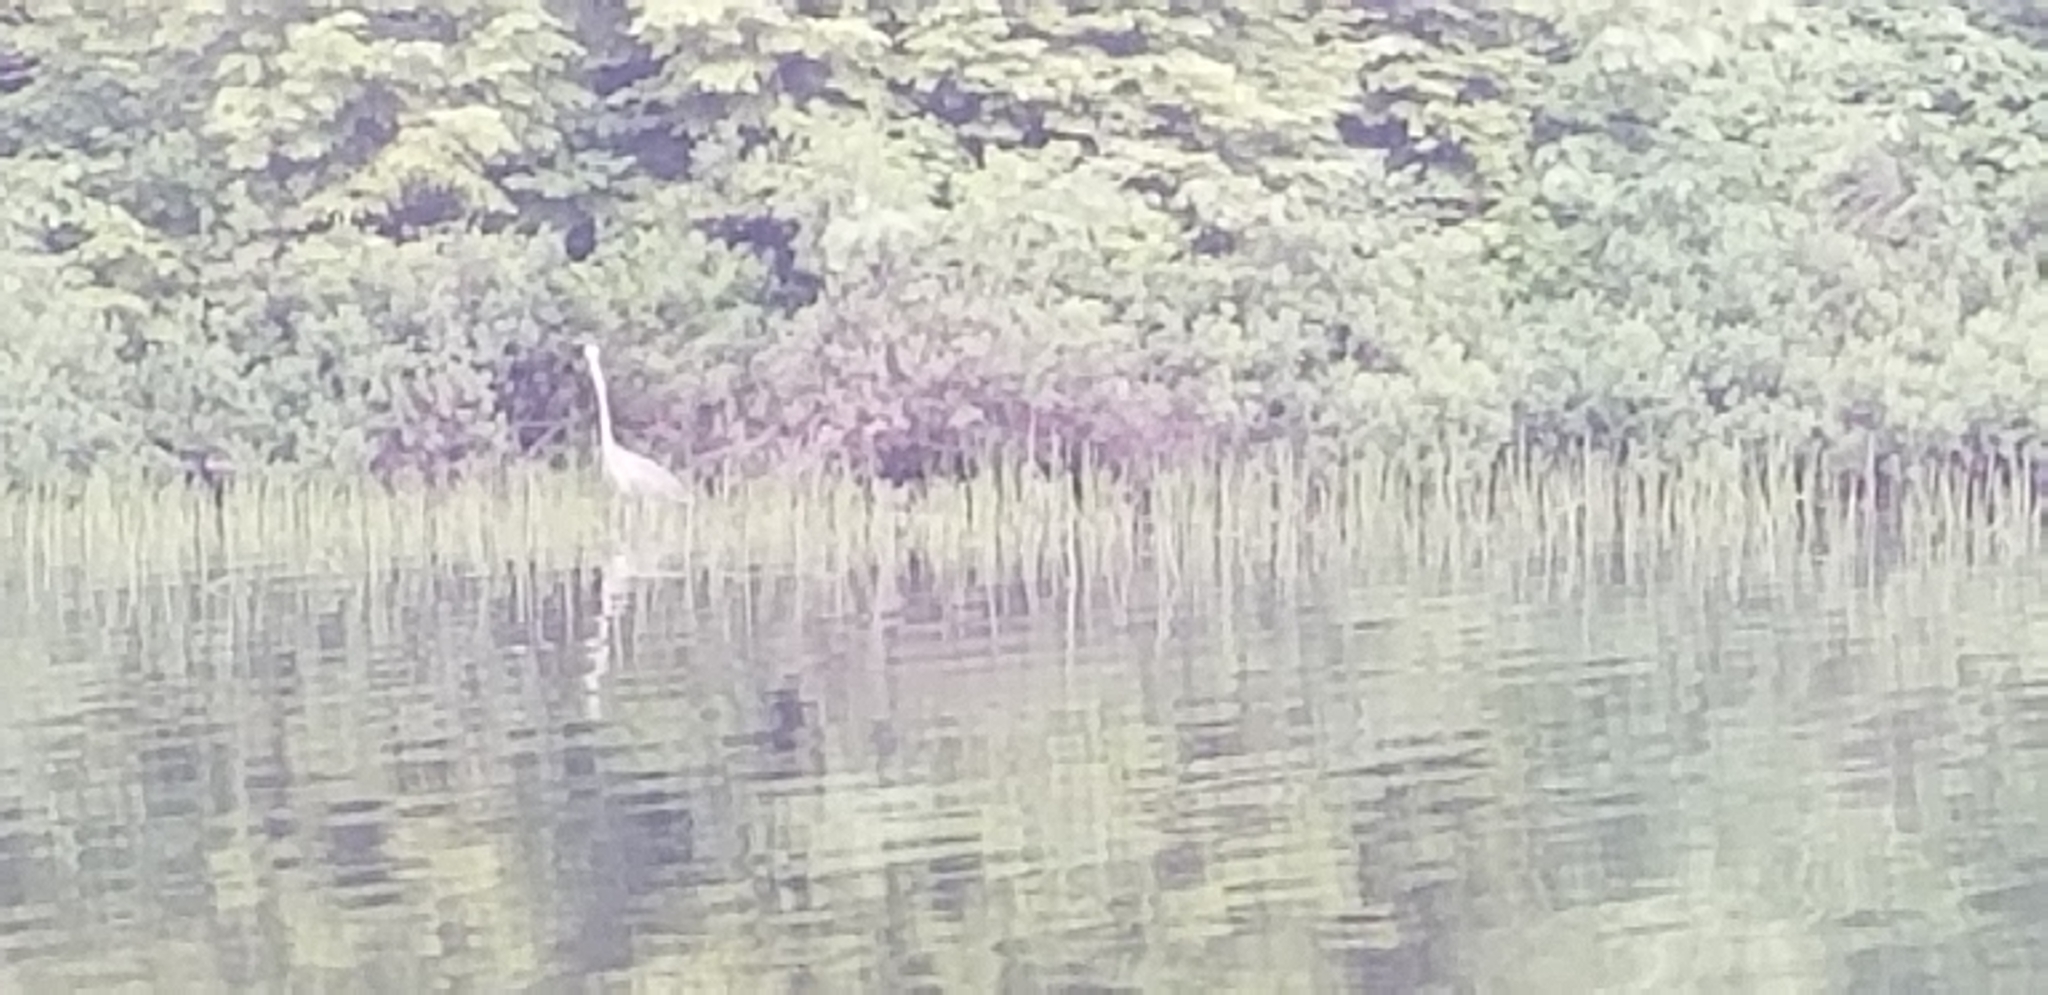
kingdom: Animalia
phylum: Chordata
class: Aves
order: Pelecaniformes
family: Ardeidae
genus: Ardea
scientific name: Ardea herodias
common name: Great blue heron
